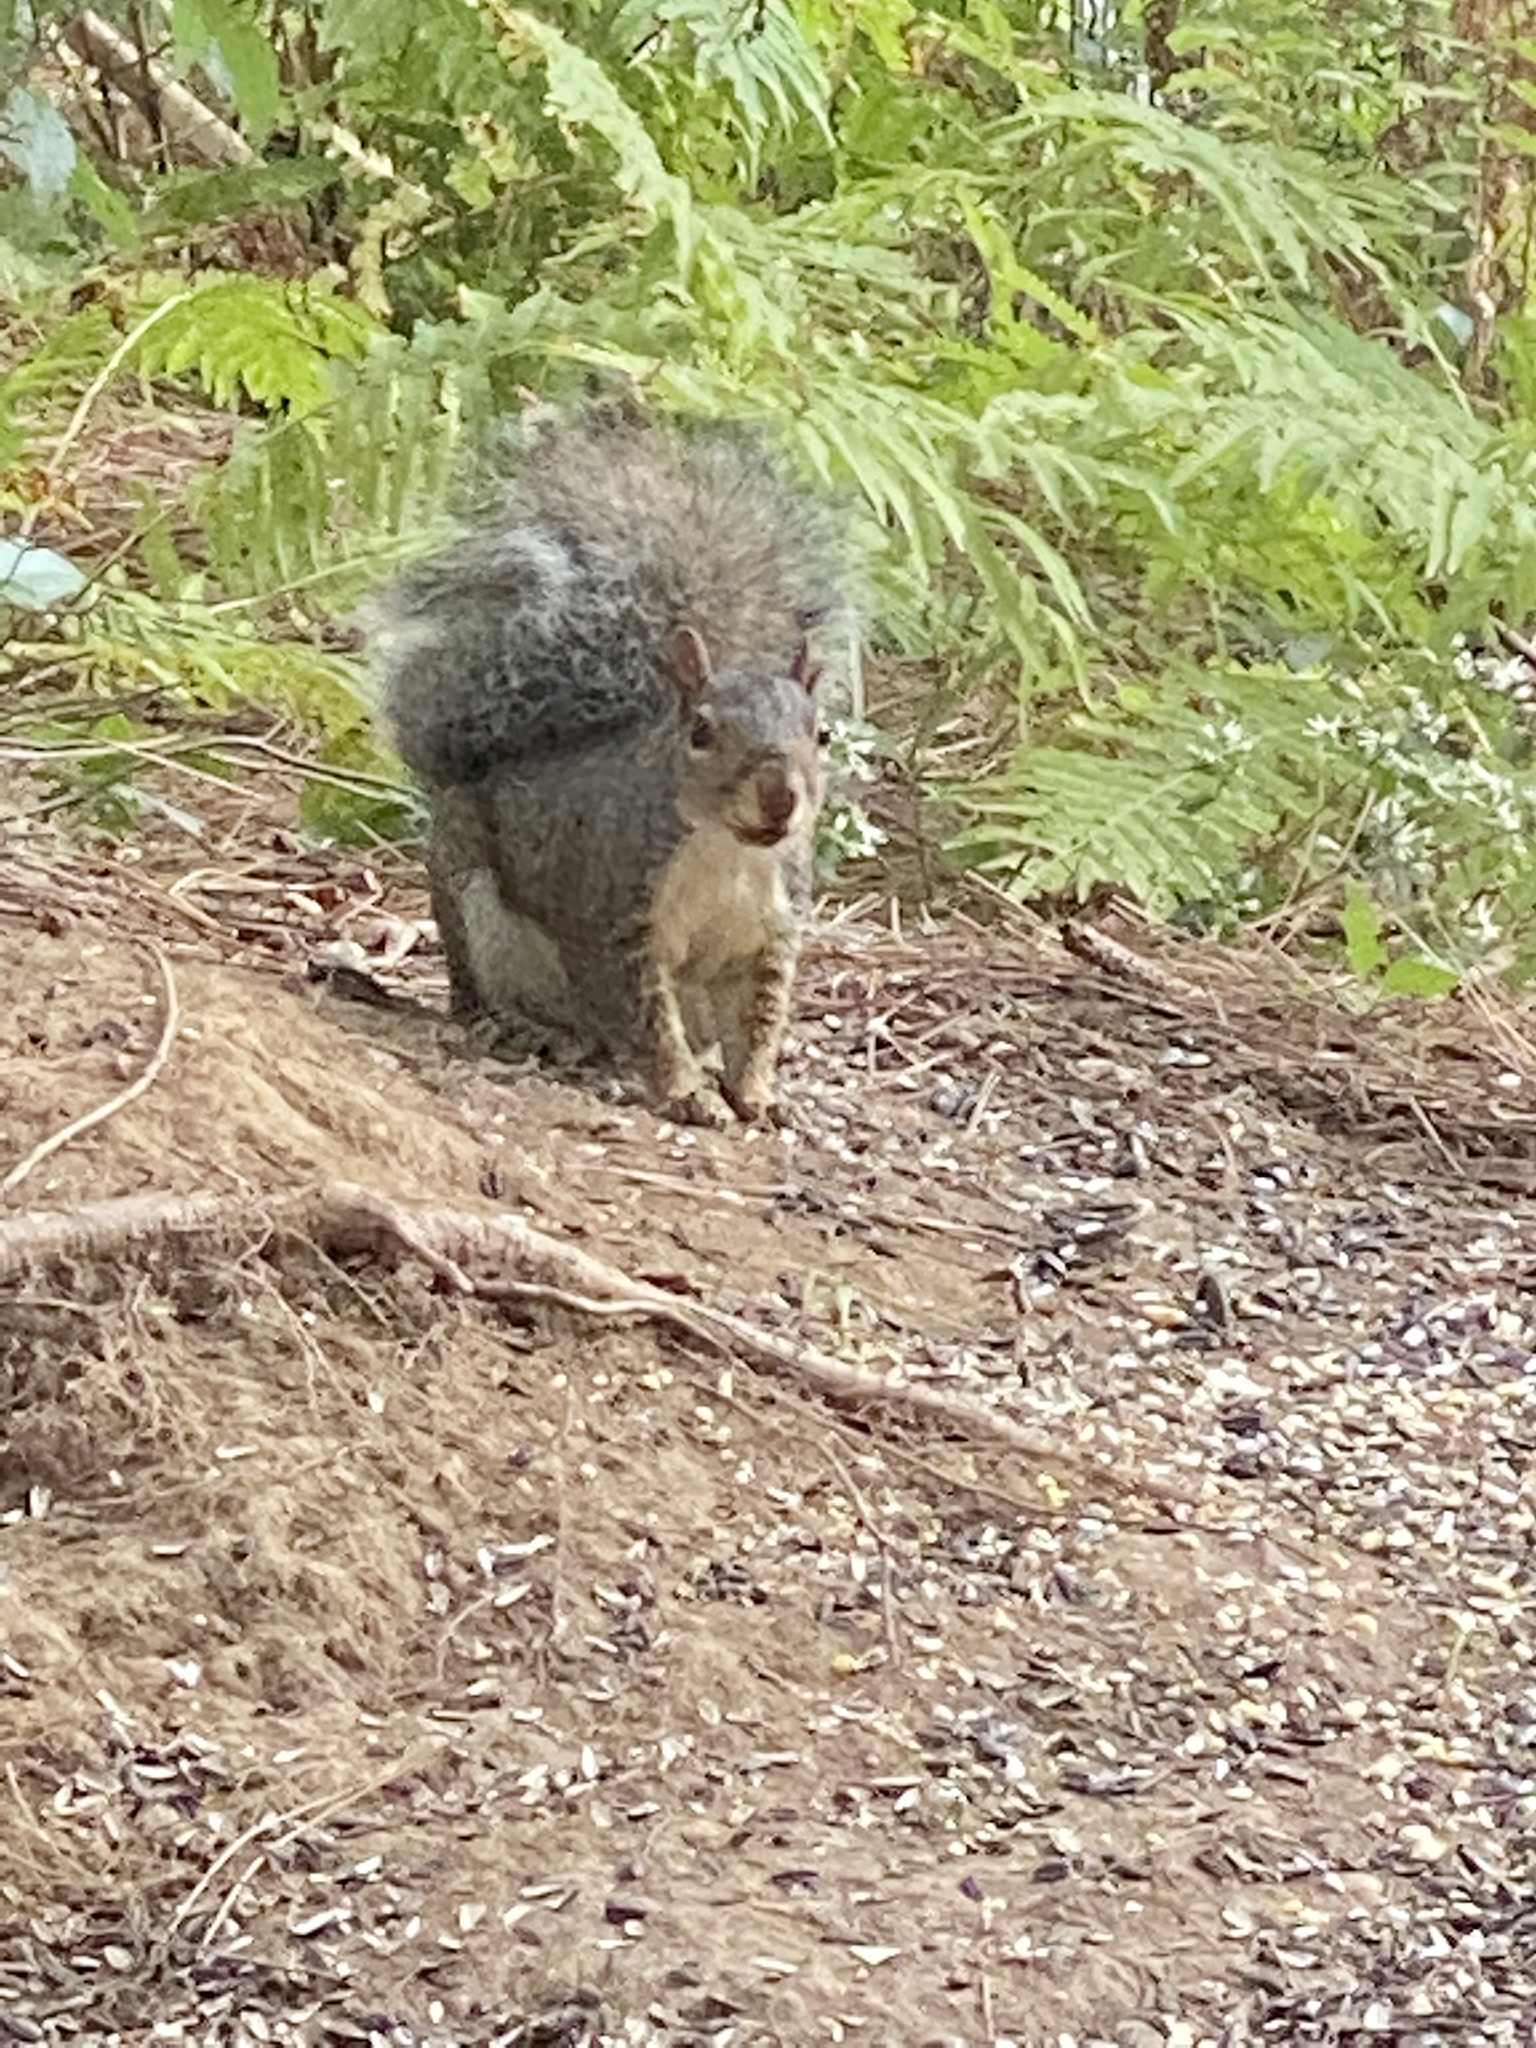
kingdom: Animalia
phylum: Chordata
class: Mammalia
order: Rodentia
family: Sciuridae
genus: Sciurus
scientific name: Sciurus carolinensis
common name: Eastern gray squirrel
